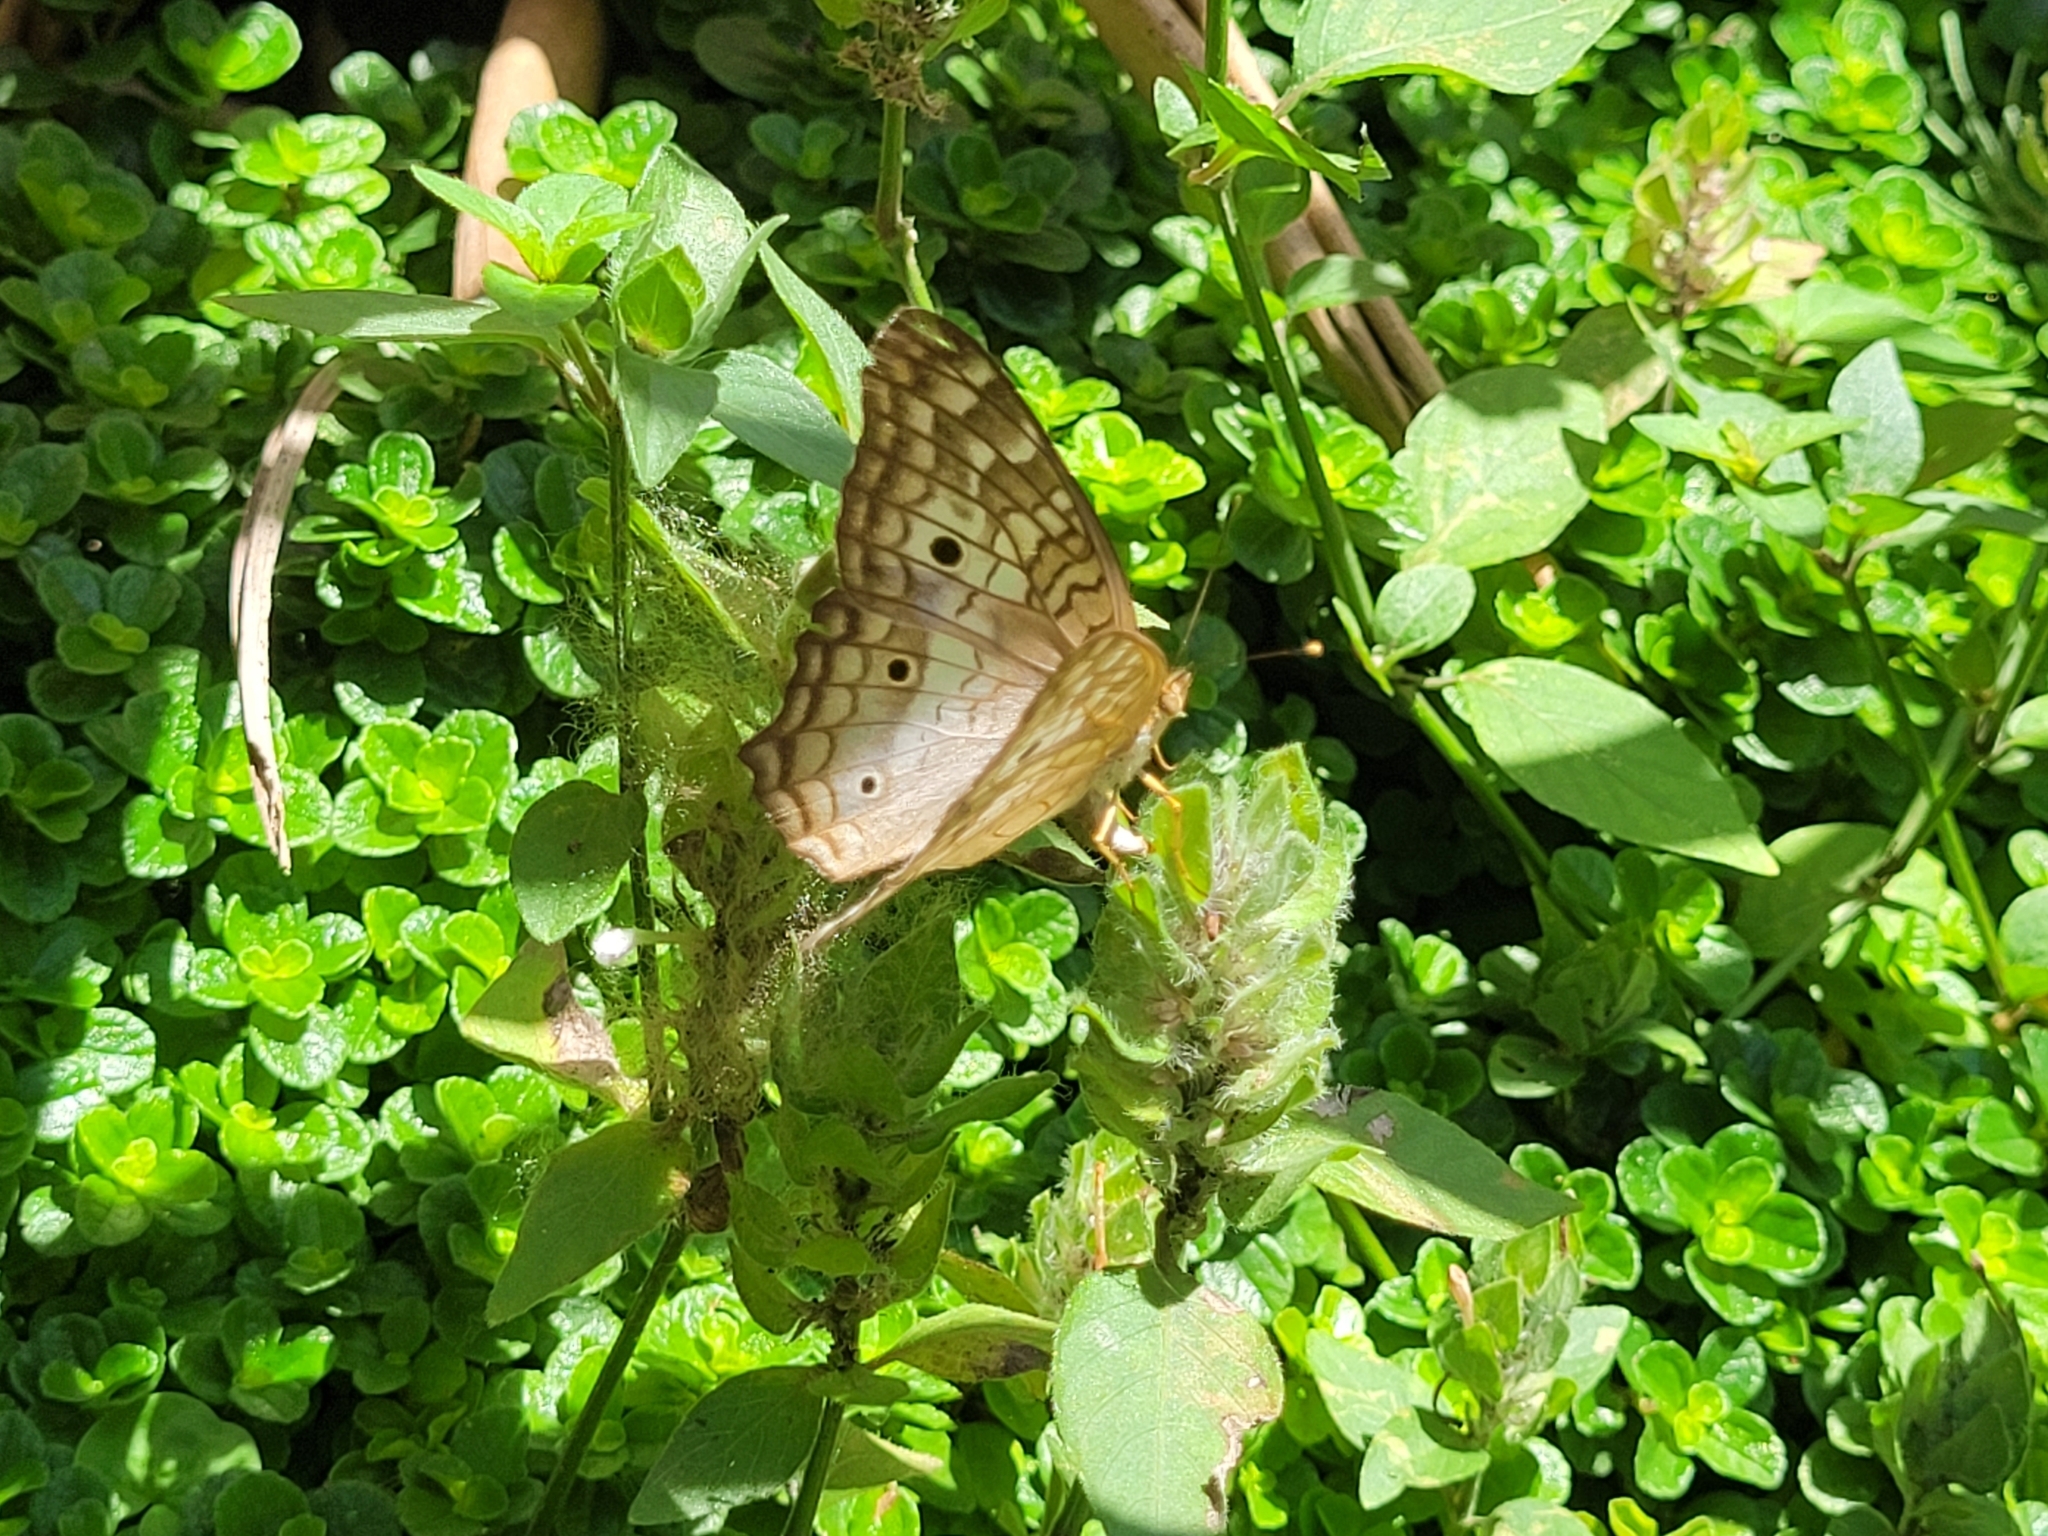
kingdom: Animalia
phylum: Arthropoda
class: Insecta
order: Lepidoptera
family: Nymphalidae
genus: Anartia
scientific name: Anartia jatrophae
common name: White peacock
